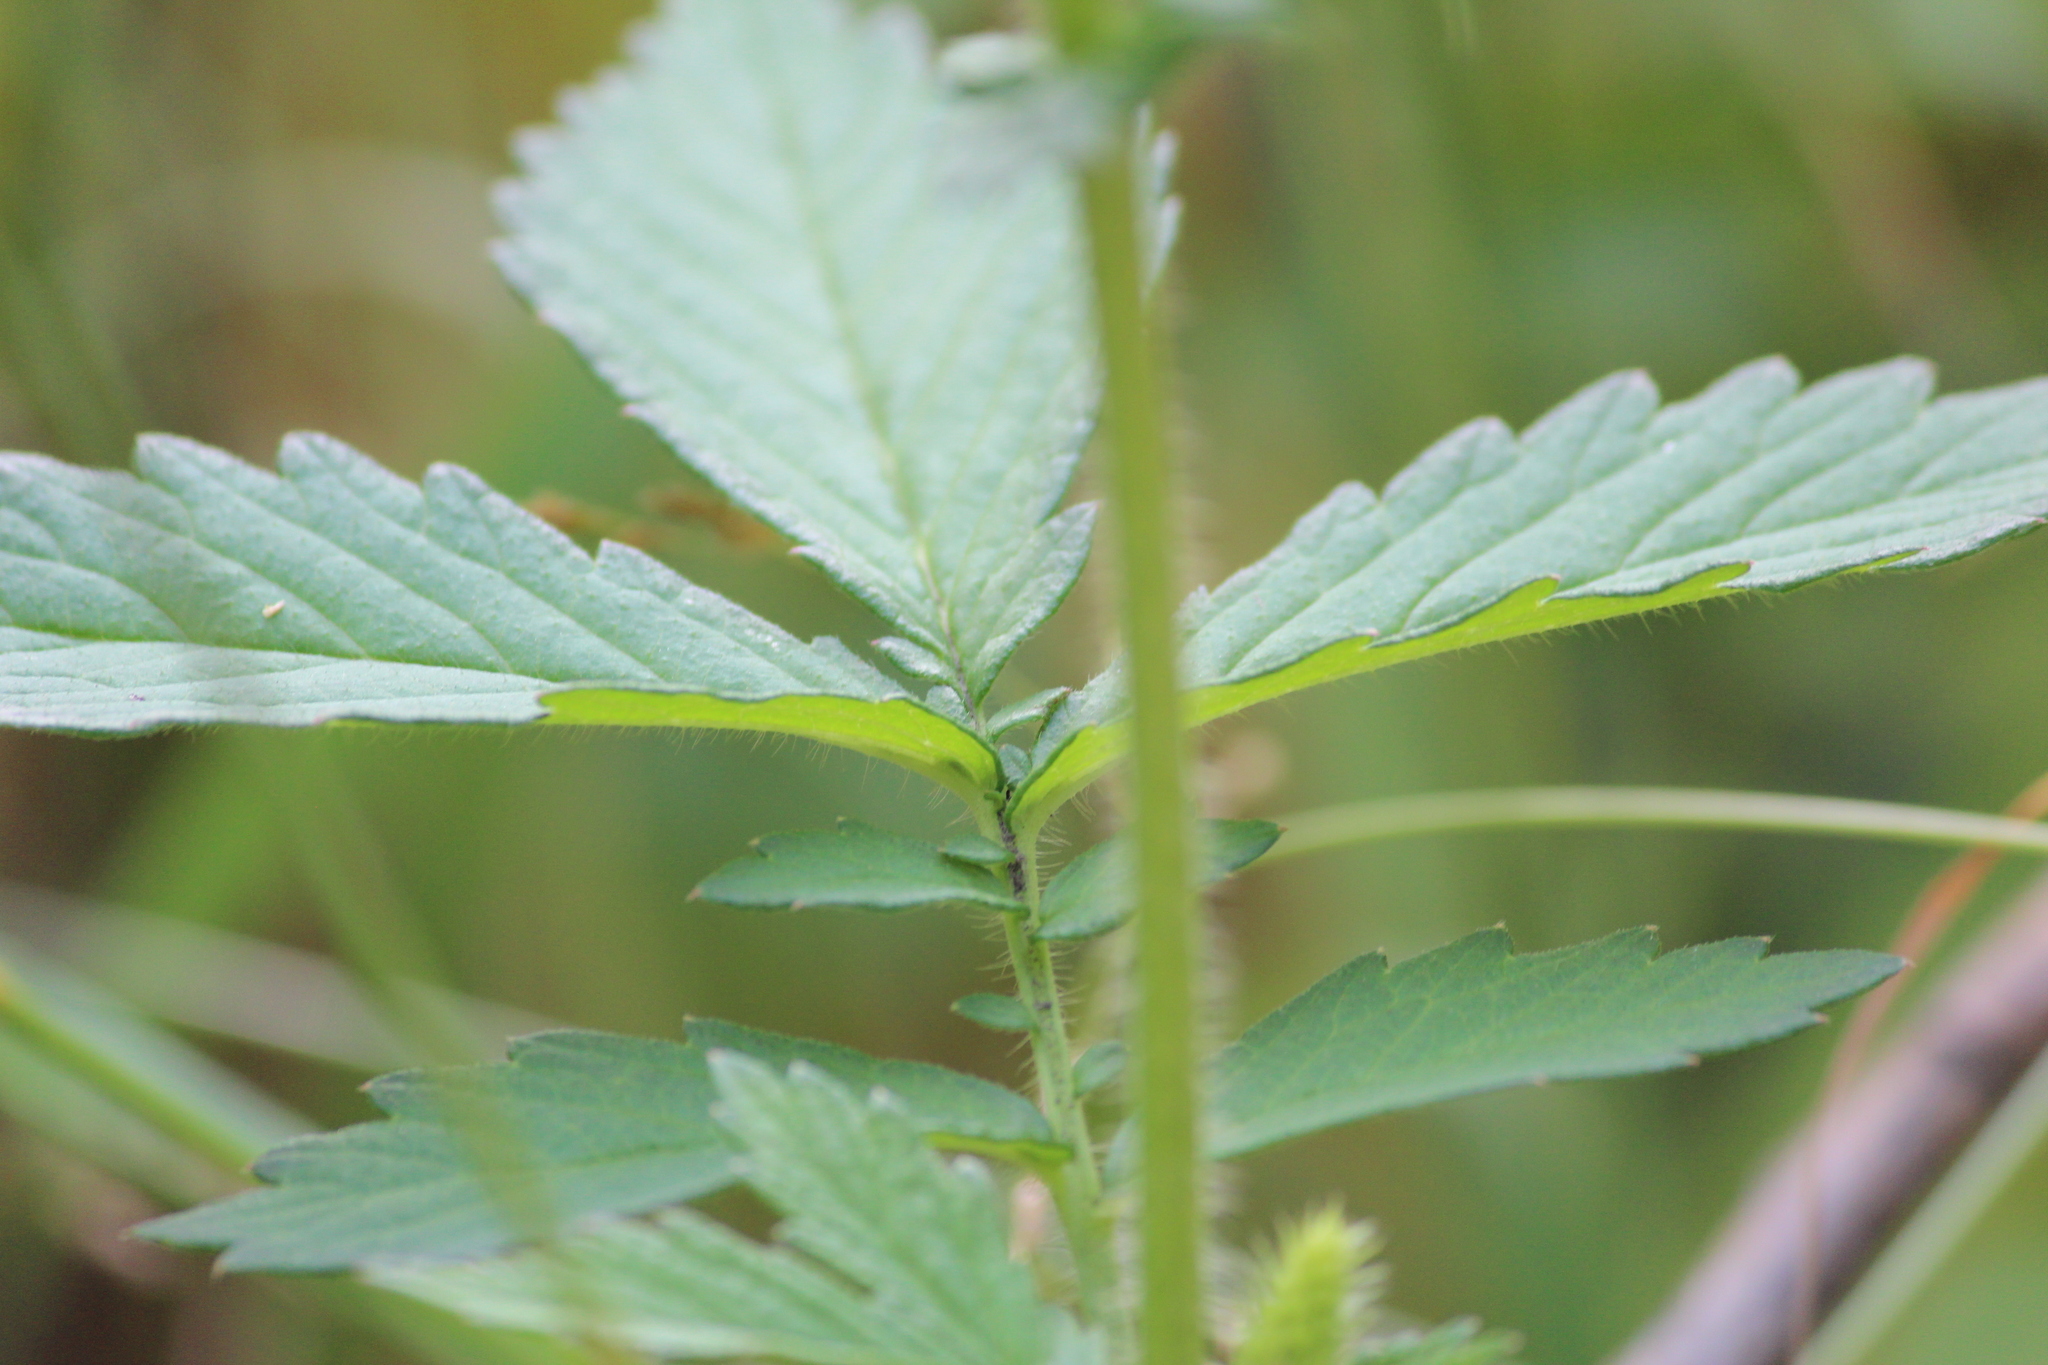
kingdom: Plantae
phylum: Tracheophyta
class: Magnoliopsida
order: Rosales
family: Rosaceae
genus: Agrimonia
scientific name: Agrimonia pilosa
